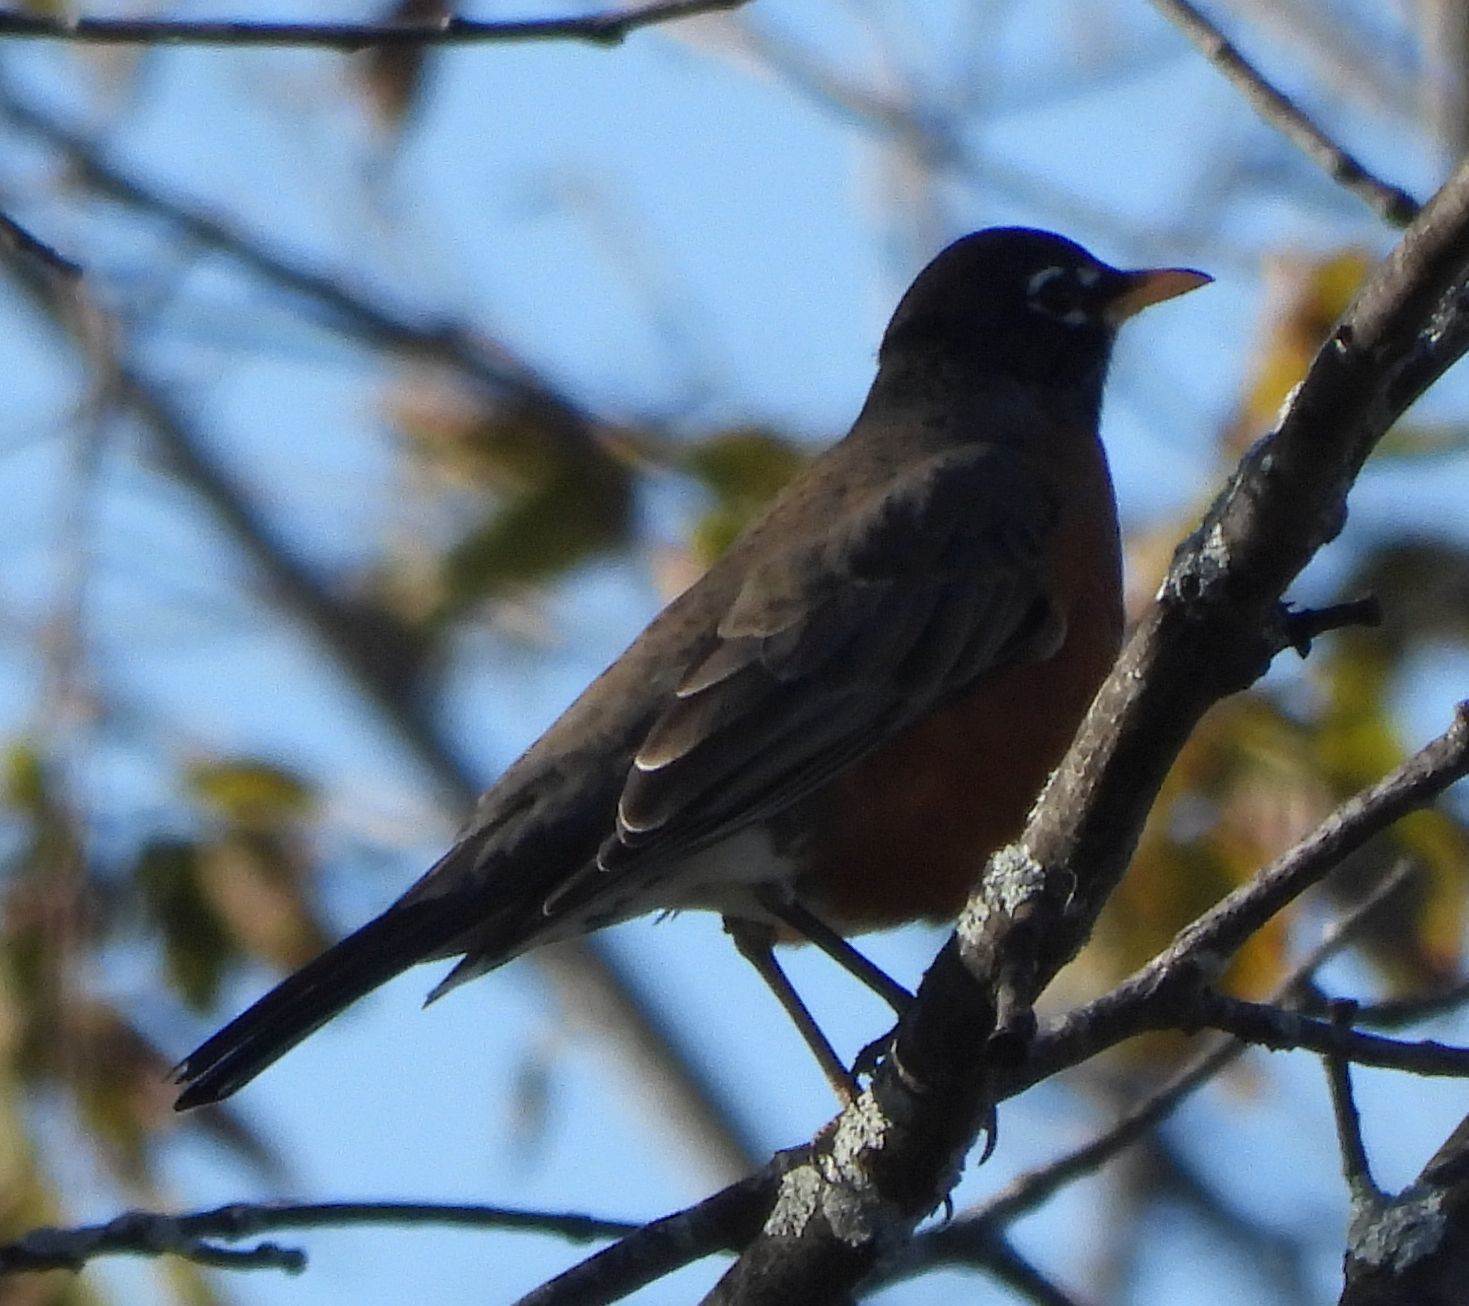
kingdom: Animalia
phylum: Chordata
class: Aves
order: Passeriformes
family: Turdidae
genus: Turdus
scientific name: Turdus migratorius
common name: American robin
